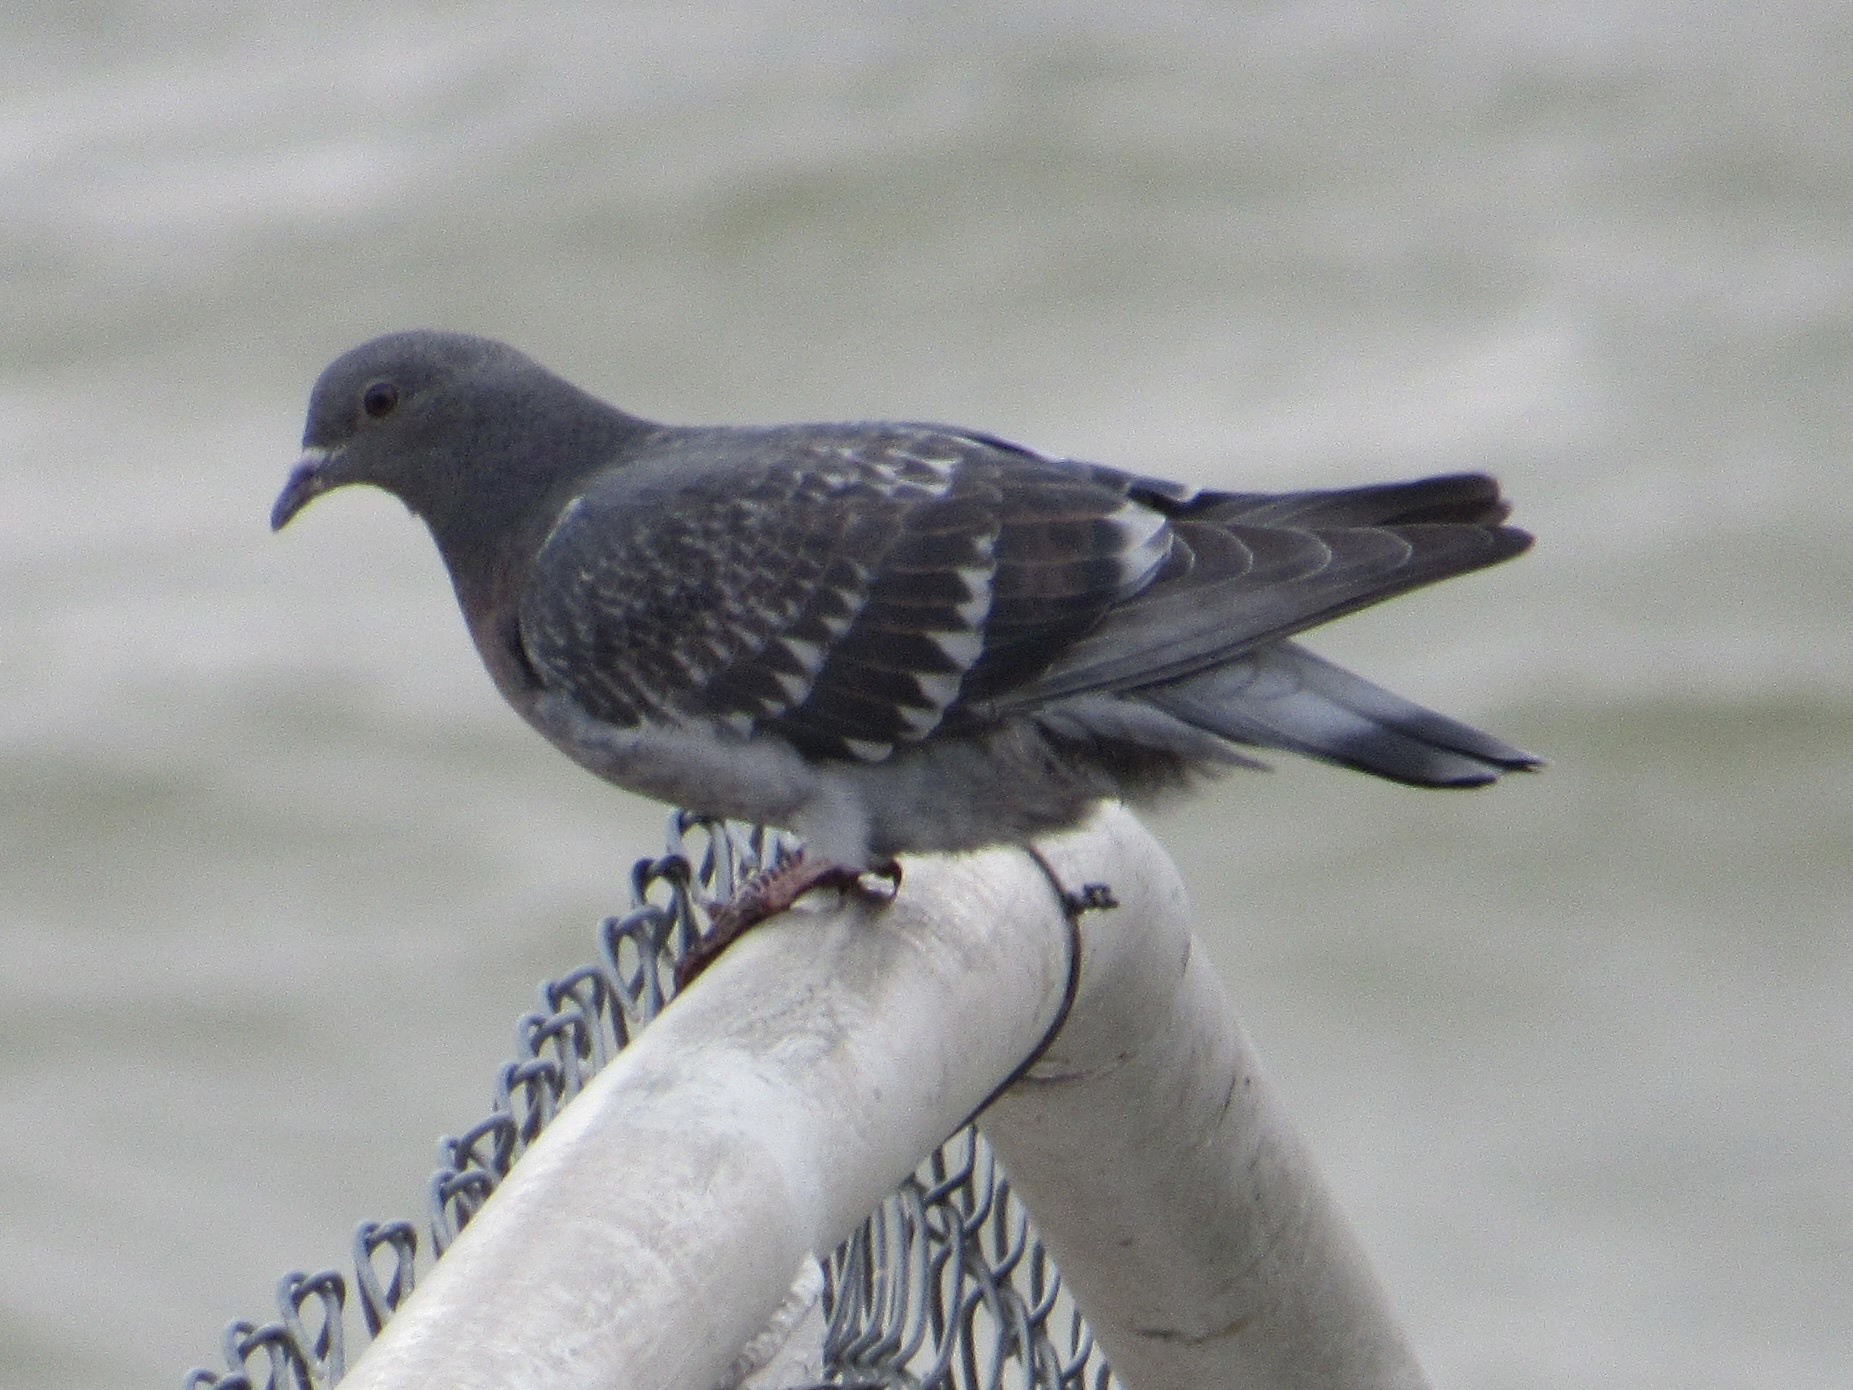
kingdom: Animalia
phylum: Chordata
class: Aves
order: Columbiformes
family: Columbidae
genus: Columba
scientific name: Columba livia
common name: Rock pigeon
